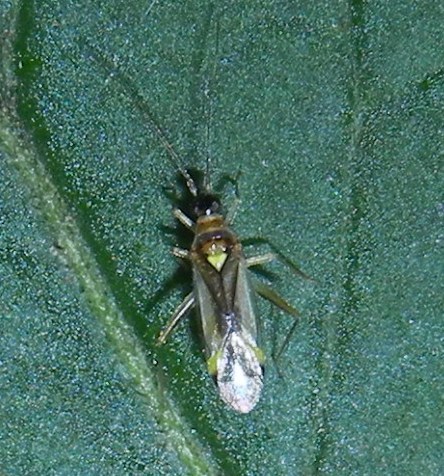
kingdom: Animalia
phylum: Arthropoda
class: Insecta
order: Hemiptera
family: Miridae
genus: Campyloneura
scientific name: Campyloneura virgula
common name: Predatory bug
